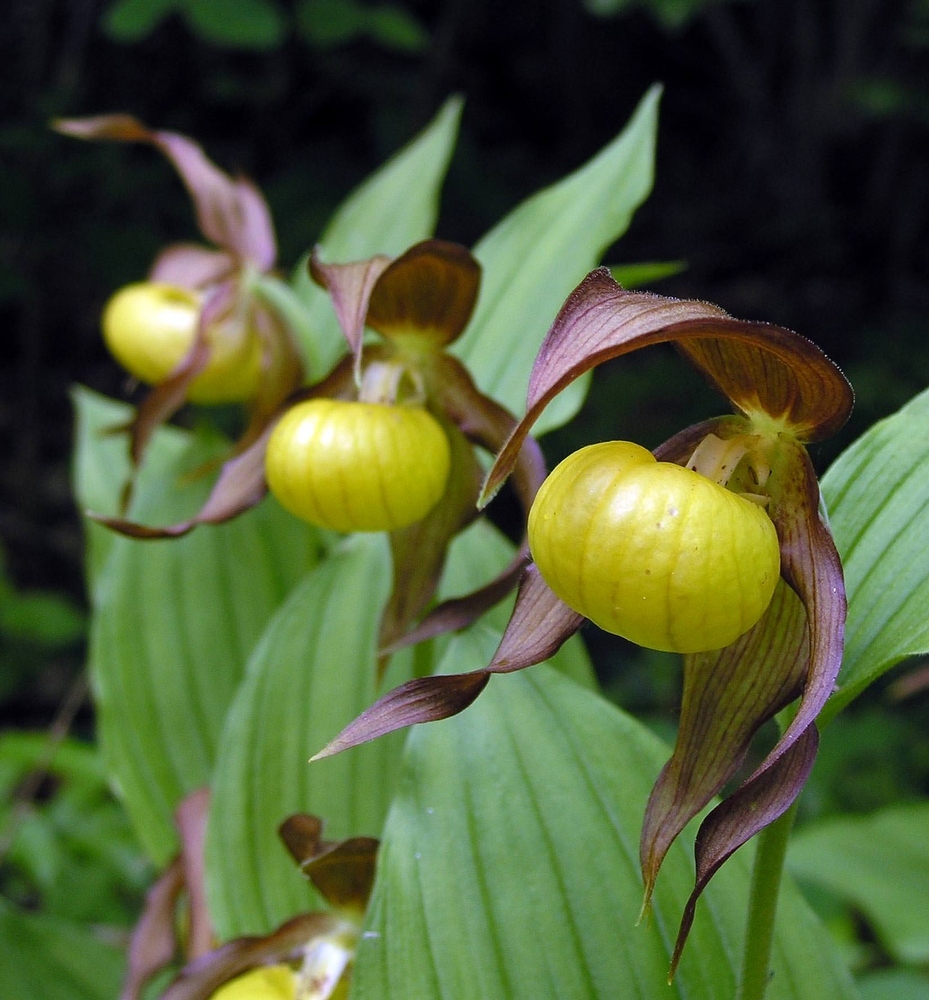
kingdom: Plantae
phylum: Tracheophyta
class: Liliopsida
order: Asparagales
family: Orchidaceae
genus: Cypripedium
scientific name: Cypripedium calceolus
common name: Lady's-slipper
